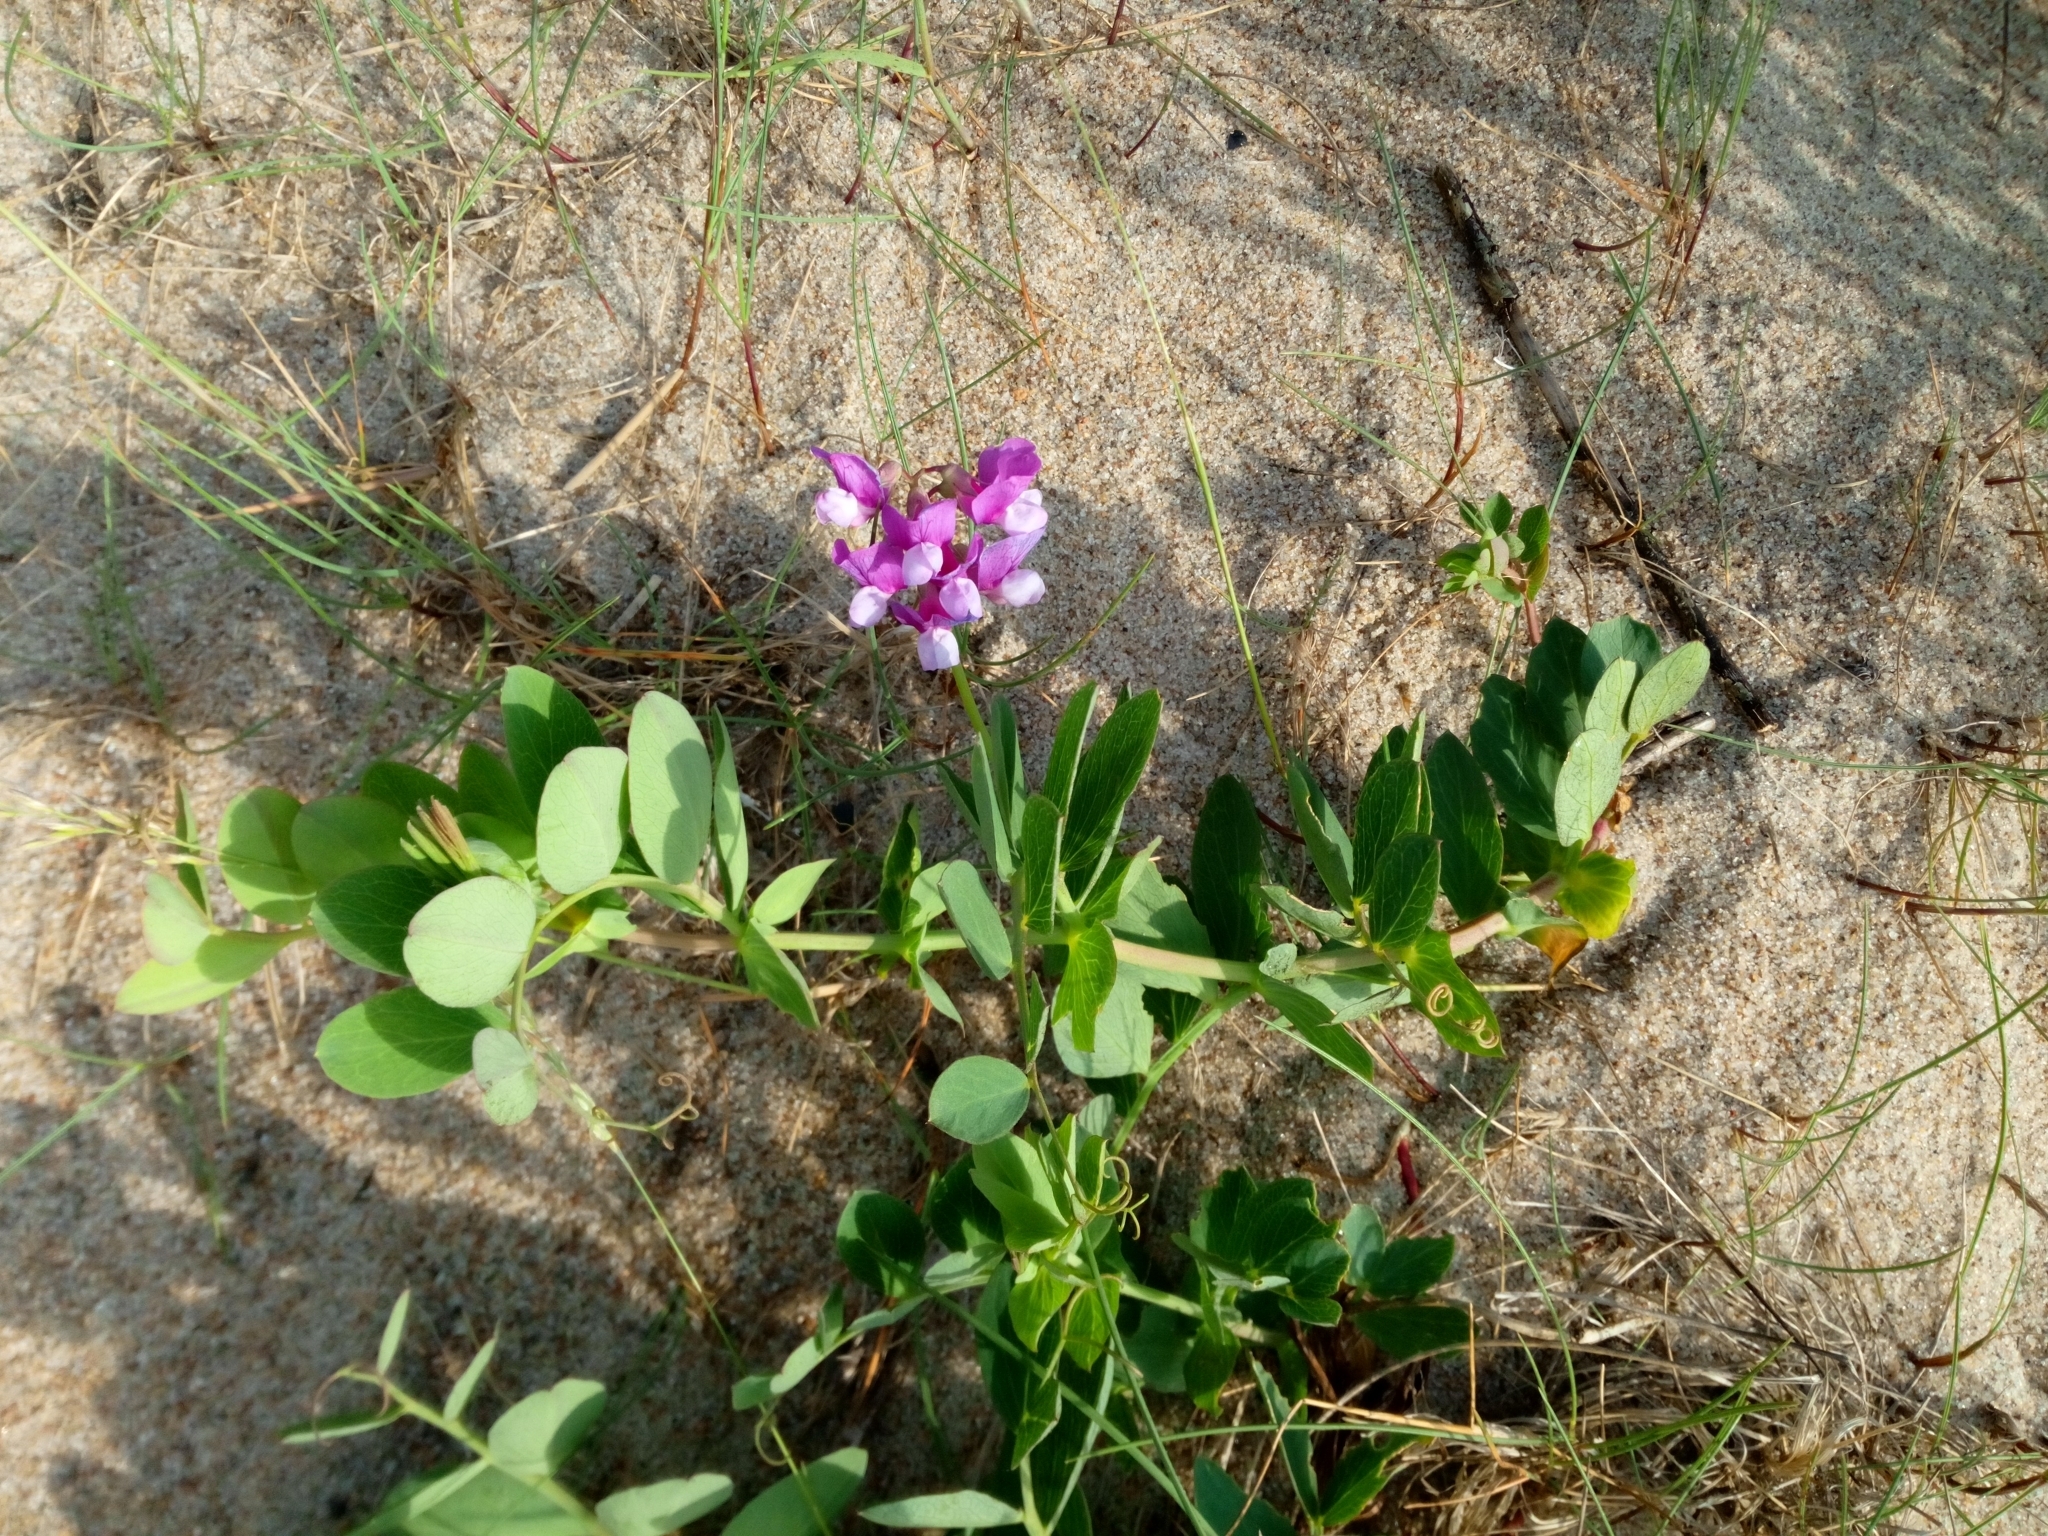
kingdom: Plantae
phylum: Tracheophyta
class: Magnoliopsida
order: Fabales
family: Fabaceae
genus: Lathyrus
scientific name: Lathyrus japonicus
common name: Sea pea
